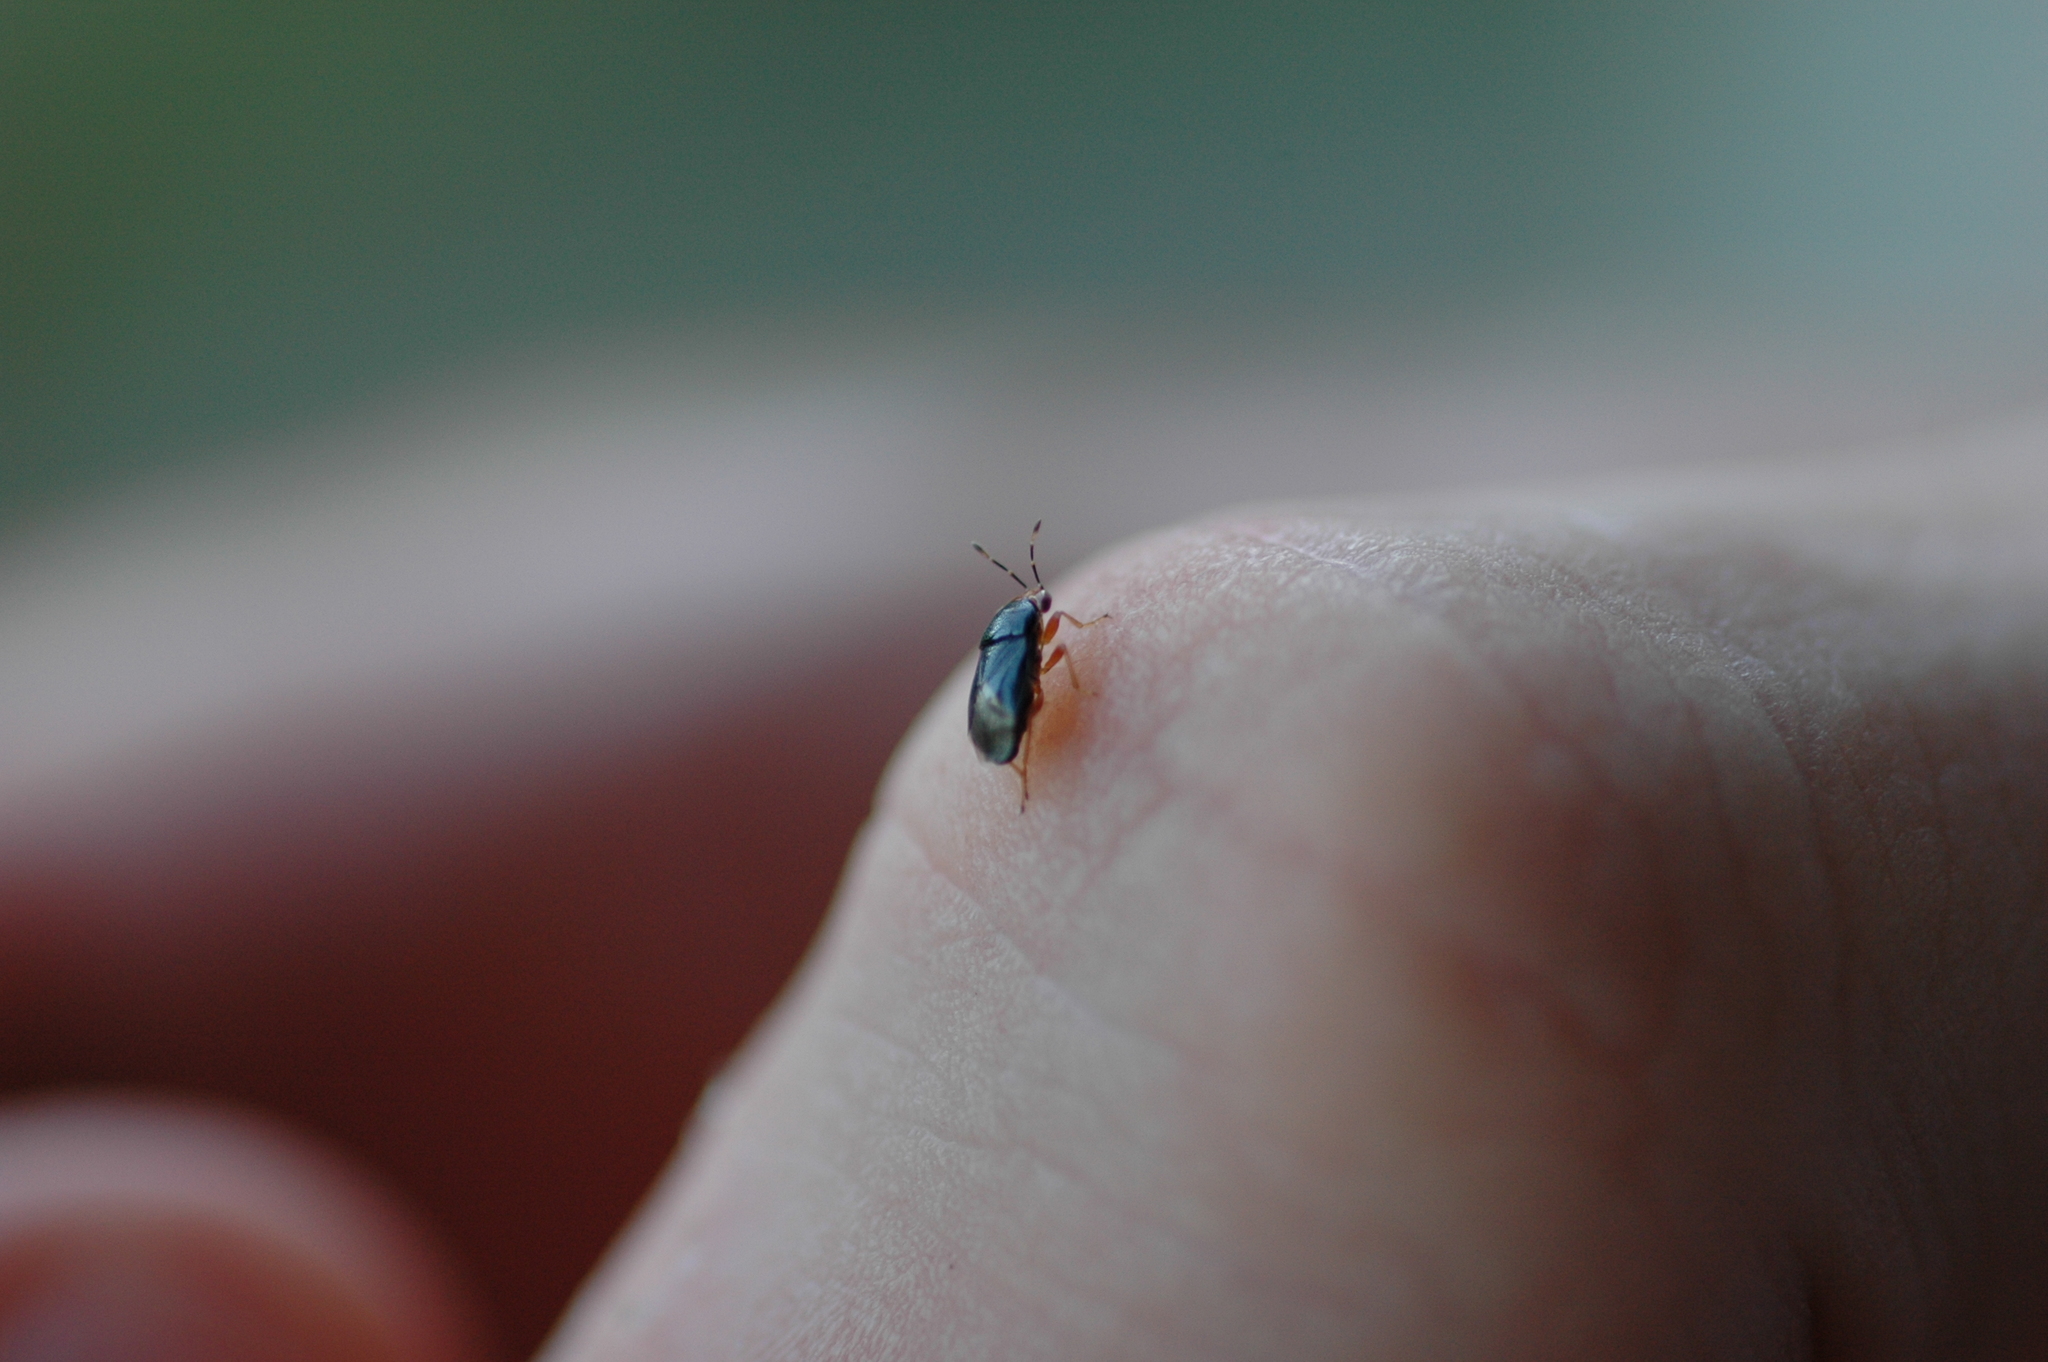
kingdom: Animalia
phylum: Arthropoda
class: Insecta
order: Hemiptera
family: Geocoridae
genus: Geocoris
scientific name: Geocoris erythrocephala
